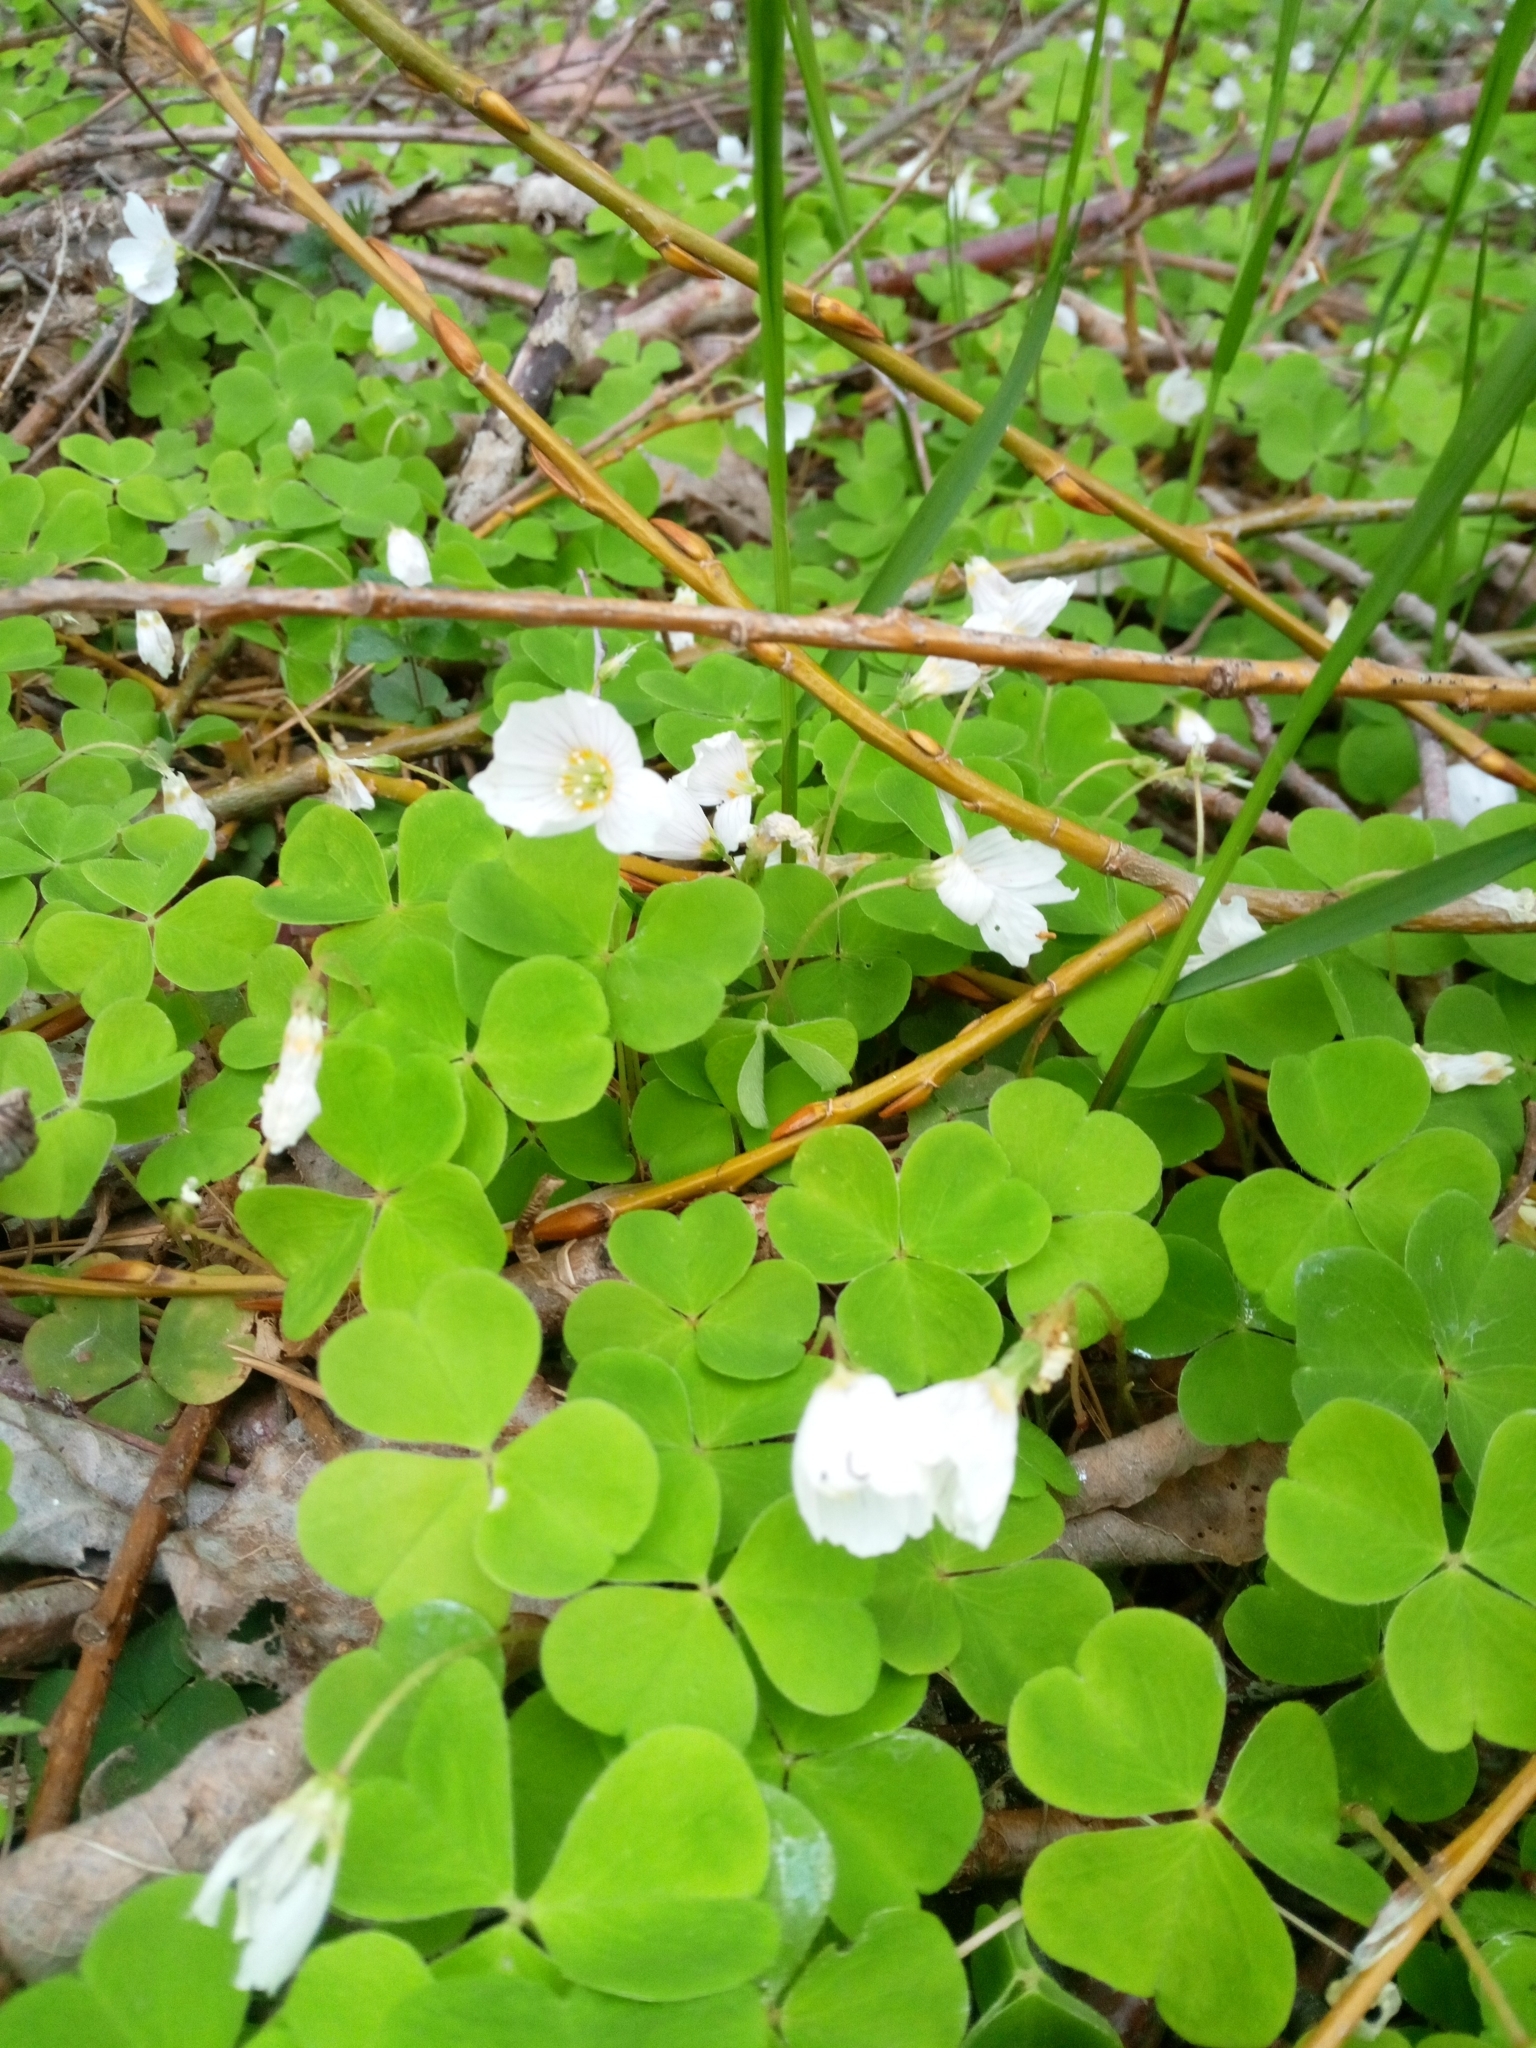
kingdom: Plantae
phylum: Tracheophyta
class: Magnoliopsida
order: Oxalidales
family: Oxalidaceae
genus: Oxalis
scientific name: Oxalis acetosella
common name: Wood-sorrel
